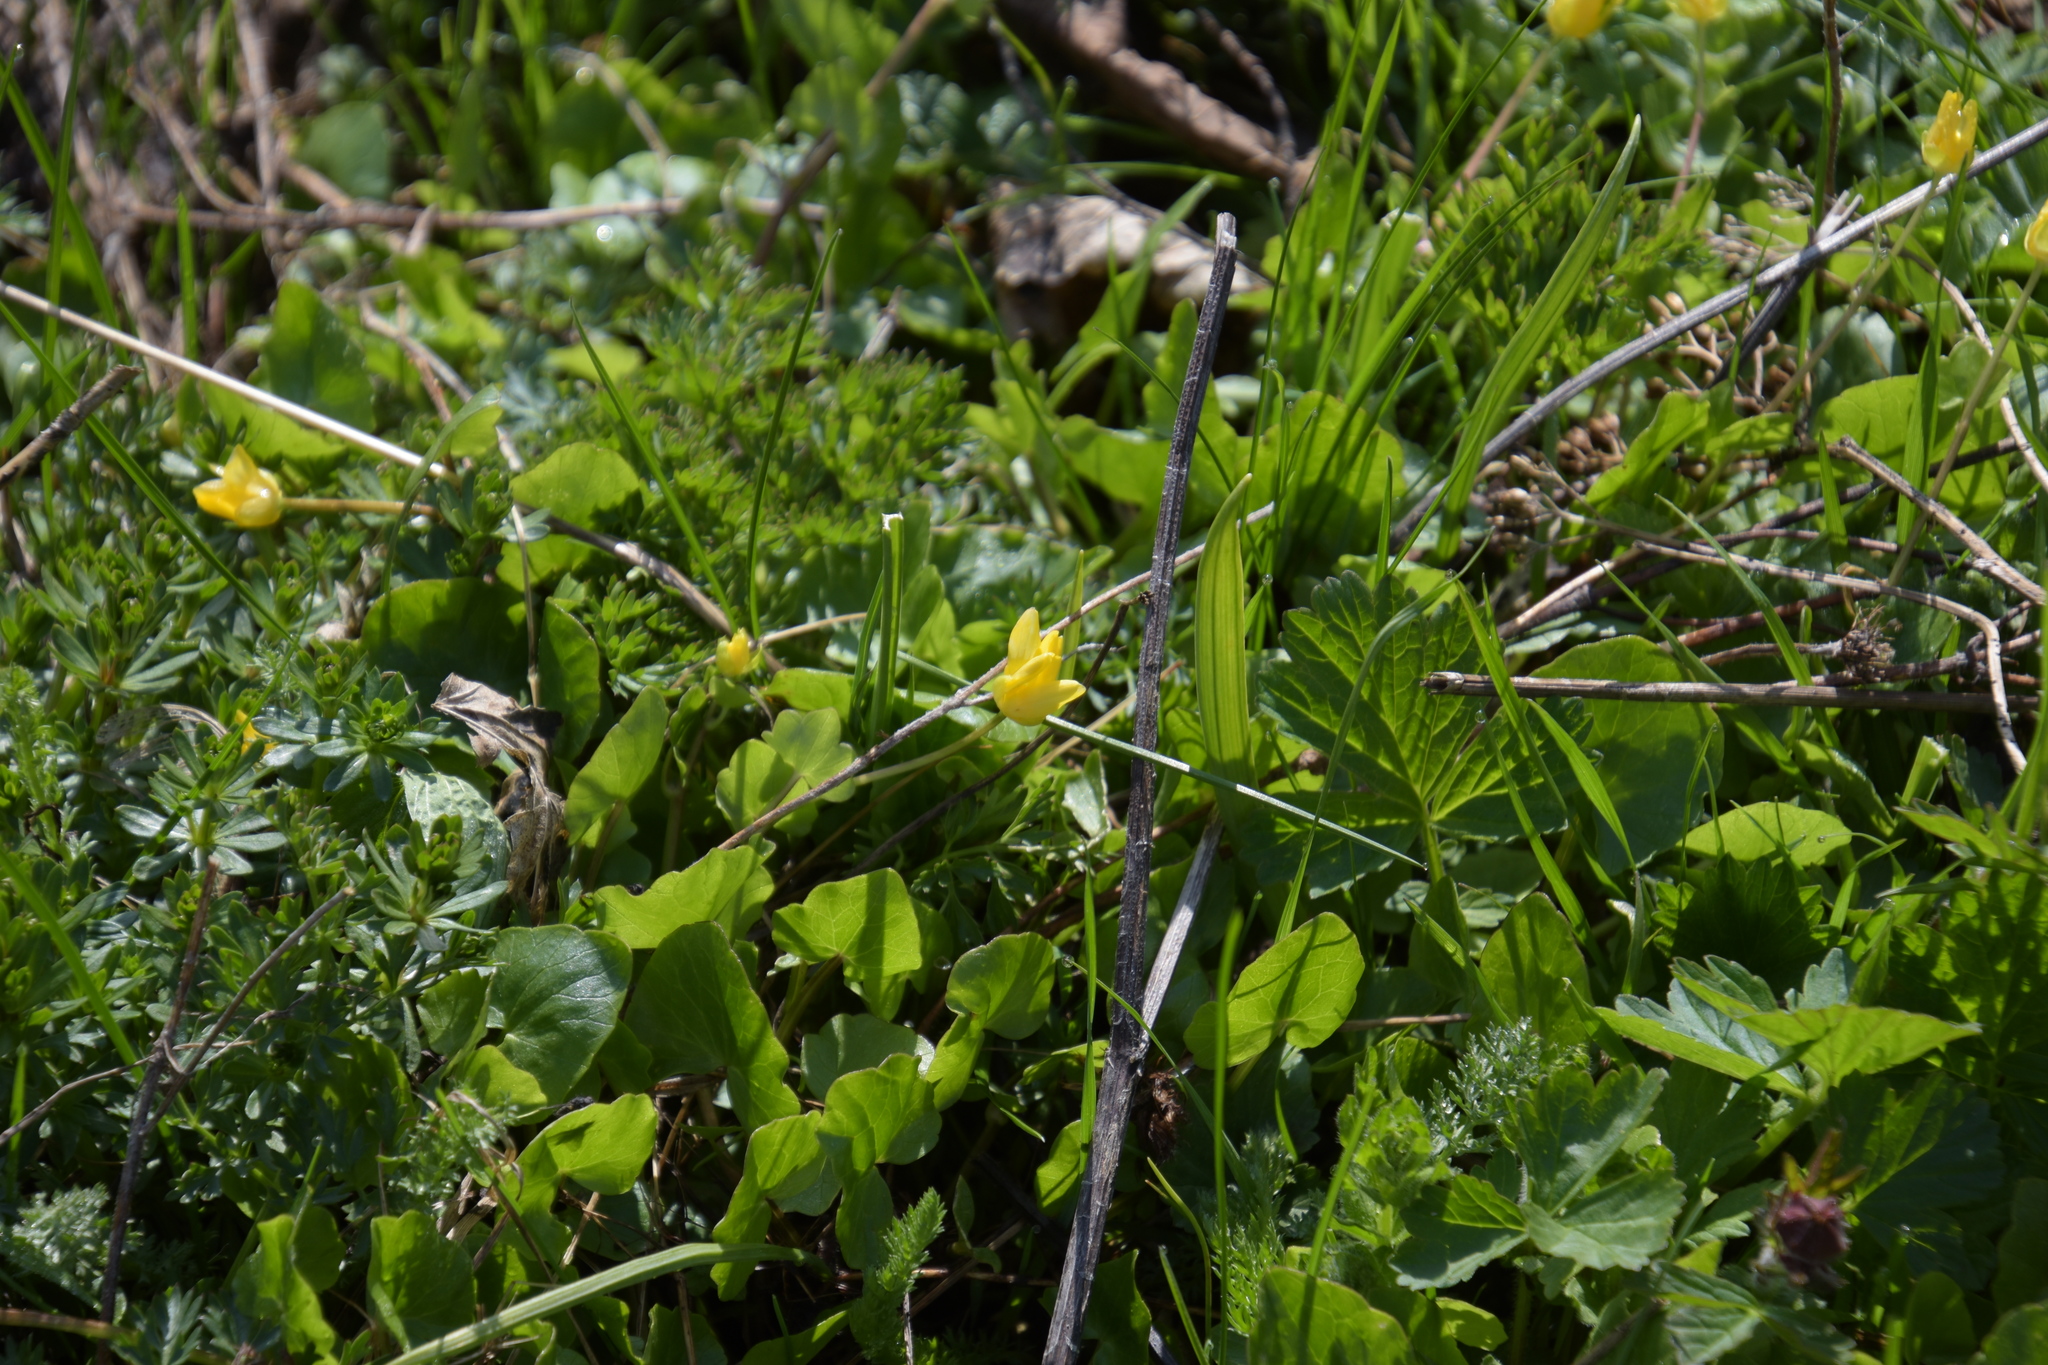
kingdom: Plantae
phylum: Tracheophyta
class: Magnoliopsida
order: Ranunculales
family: Ranunculaceae
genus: Ficaria
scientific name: Ficaria verna
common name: Lesser celandine
